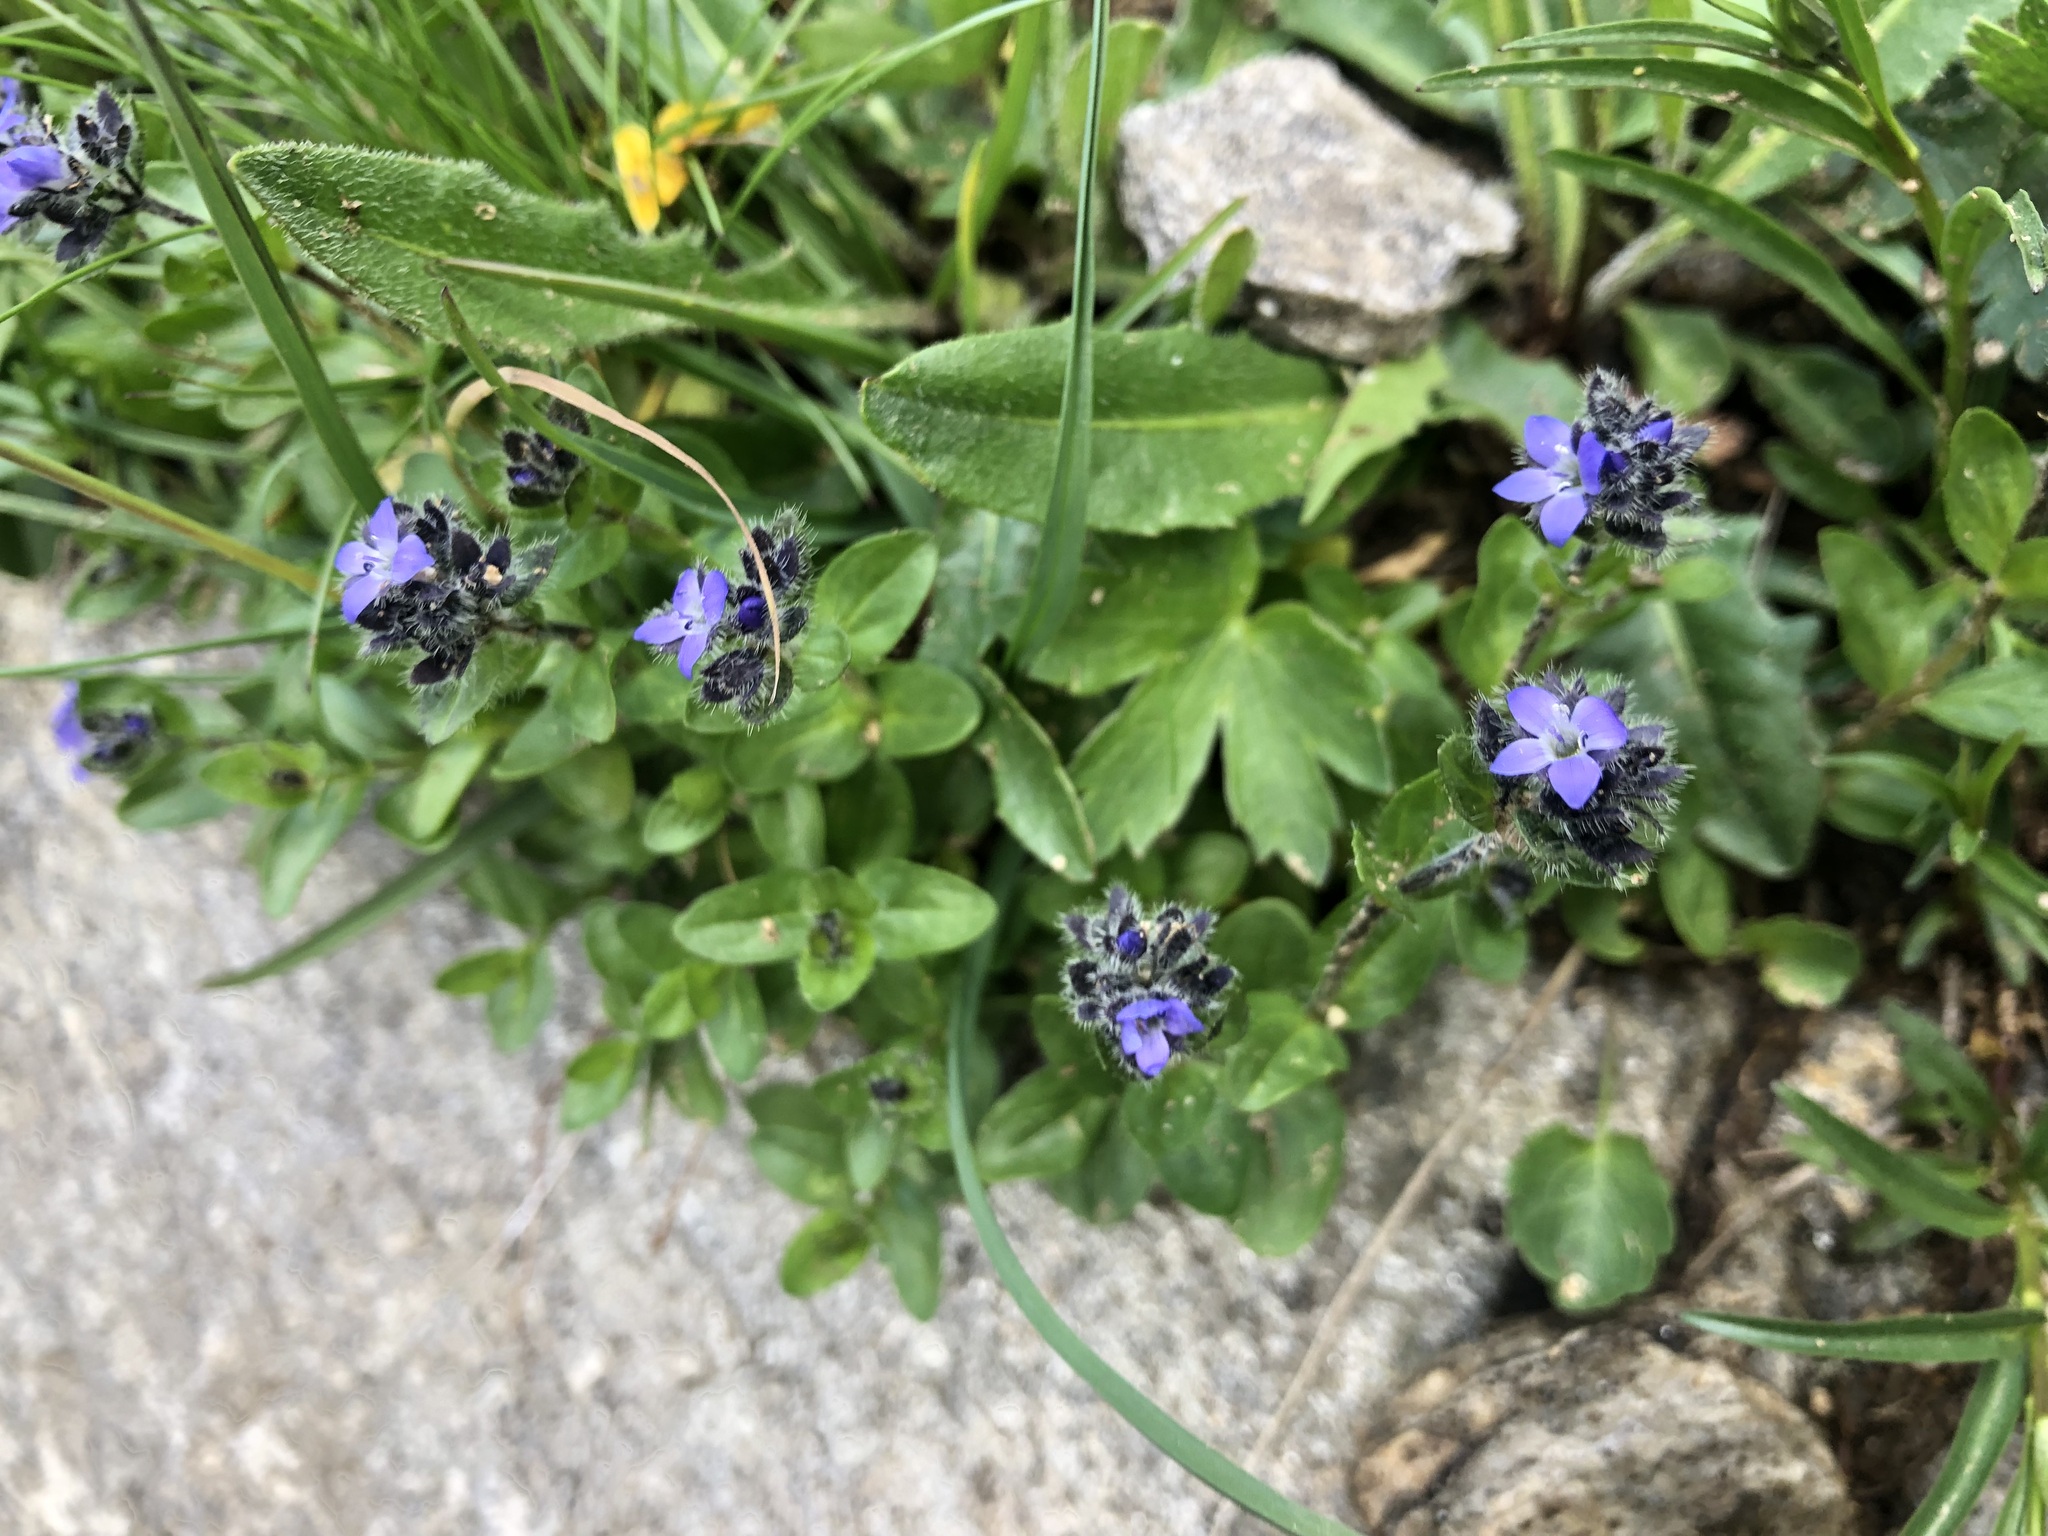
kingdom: Plantae
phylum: Tracheophyta
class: Magnoliopsida
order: Lamiales
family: Plantaginaceae
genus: Veronica
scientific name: Veronica alpina
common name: Alpine speedwell
